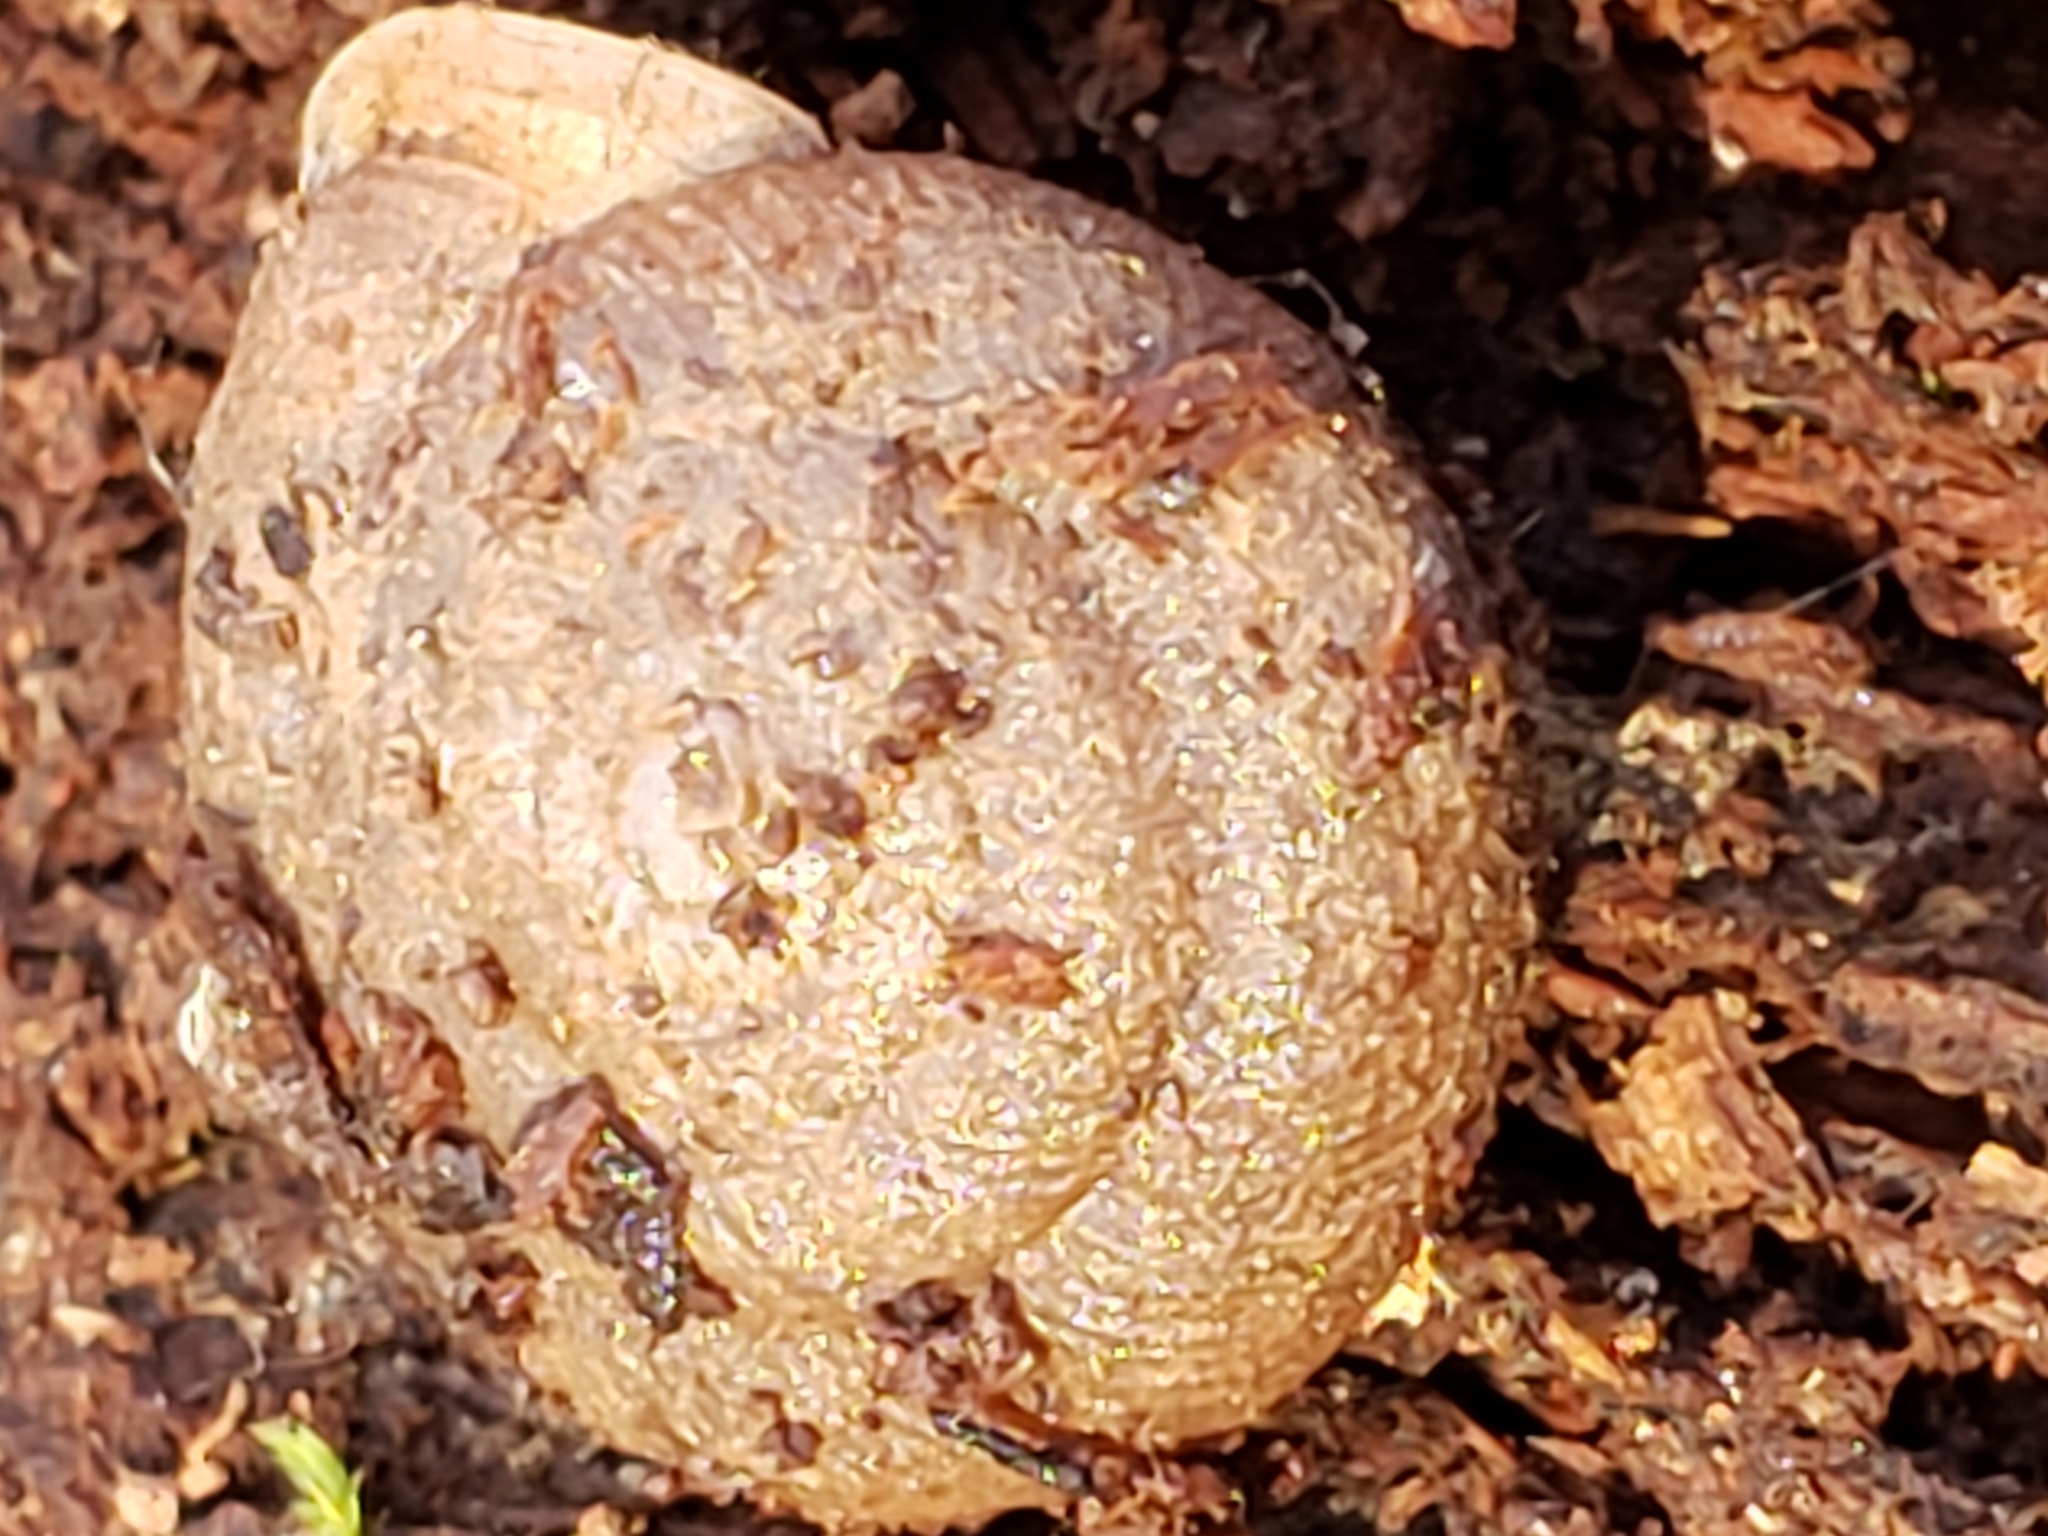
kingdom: Animalia
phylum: Mollusca
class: Gastropoda
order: Stylommatophora
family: Polygyridae
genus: Triodopsis
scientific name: Triodopsis juxtidens
